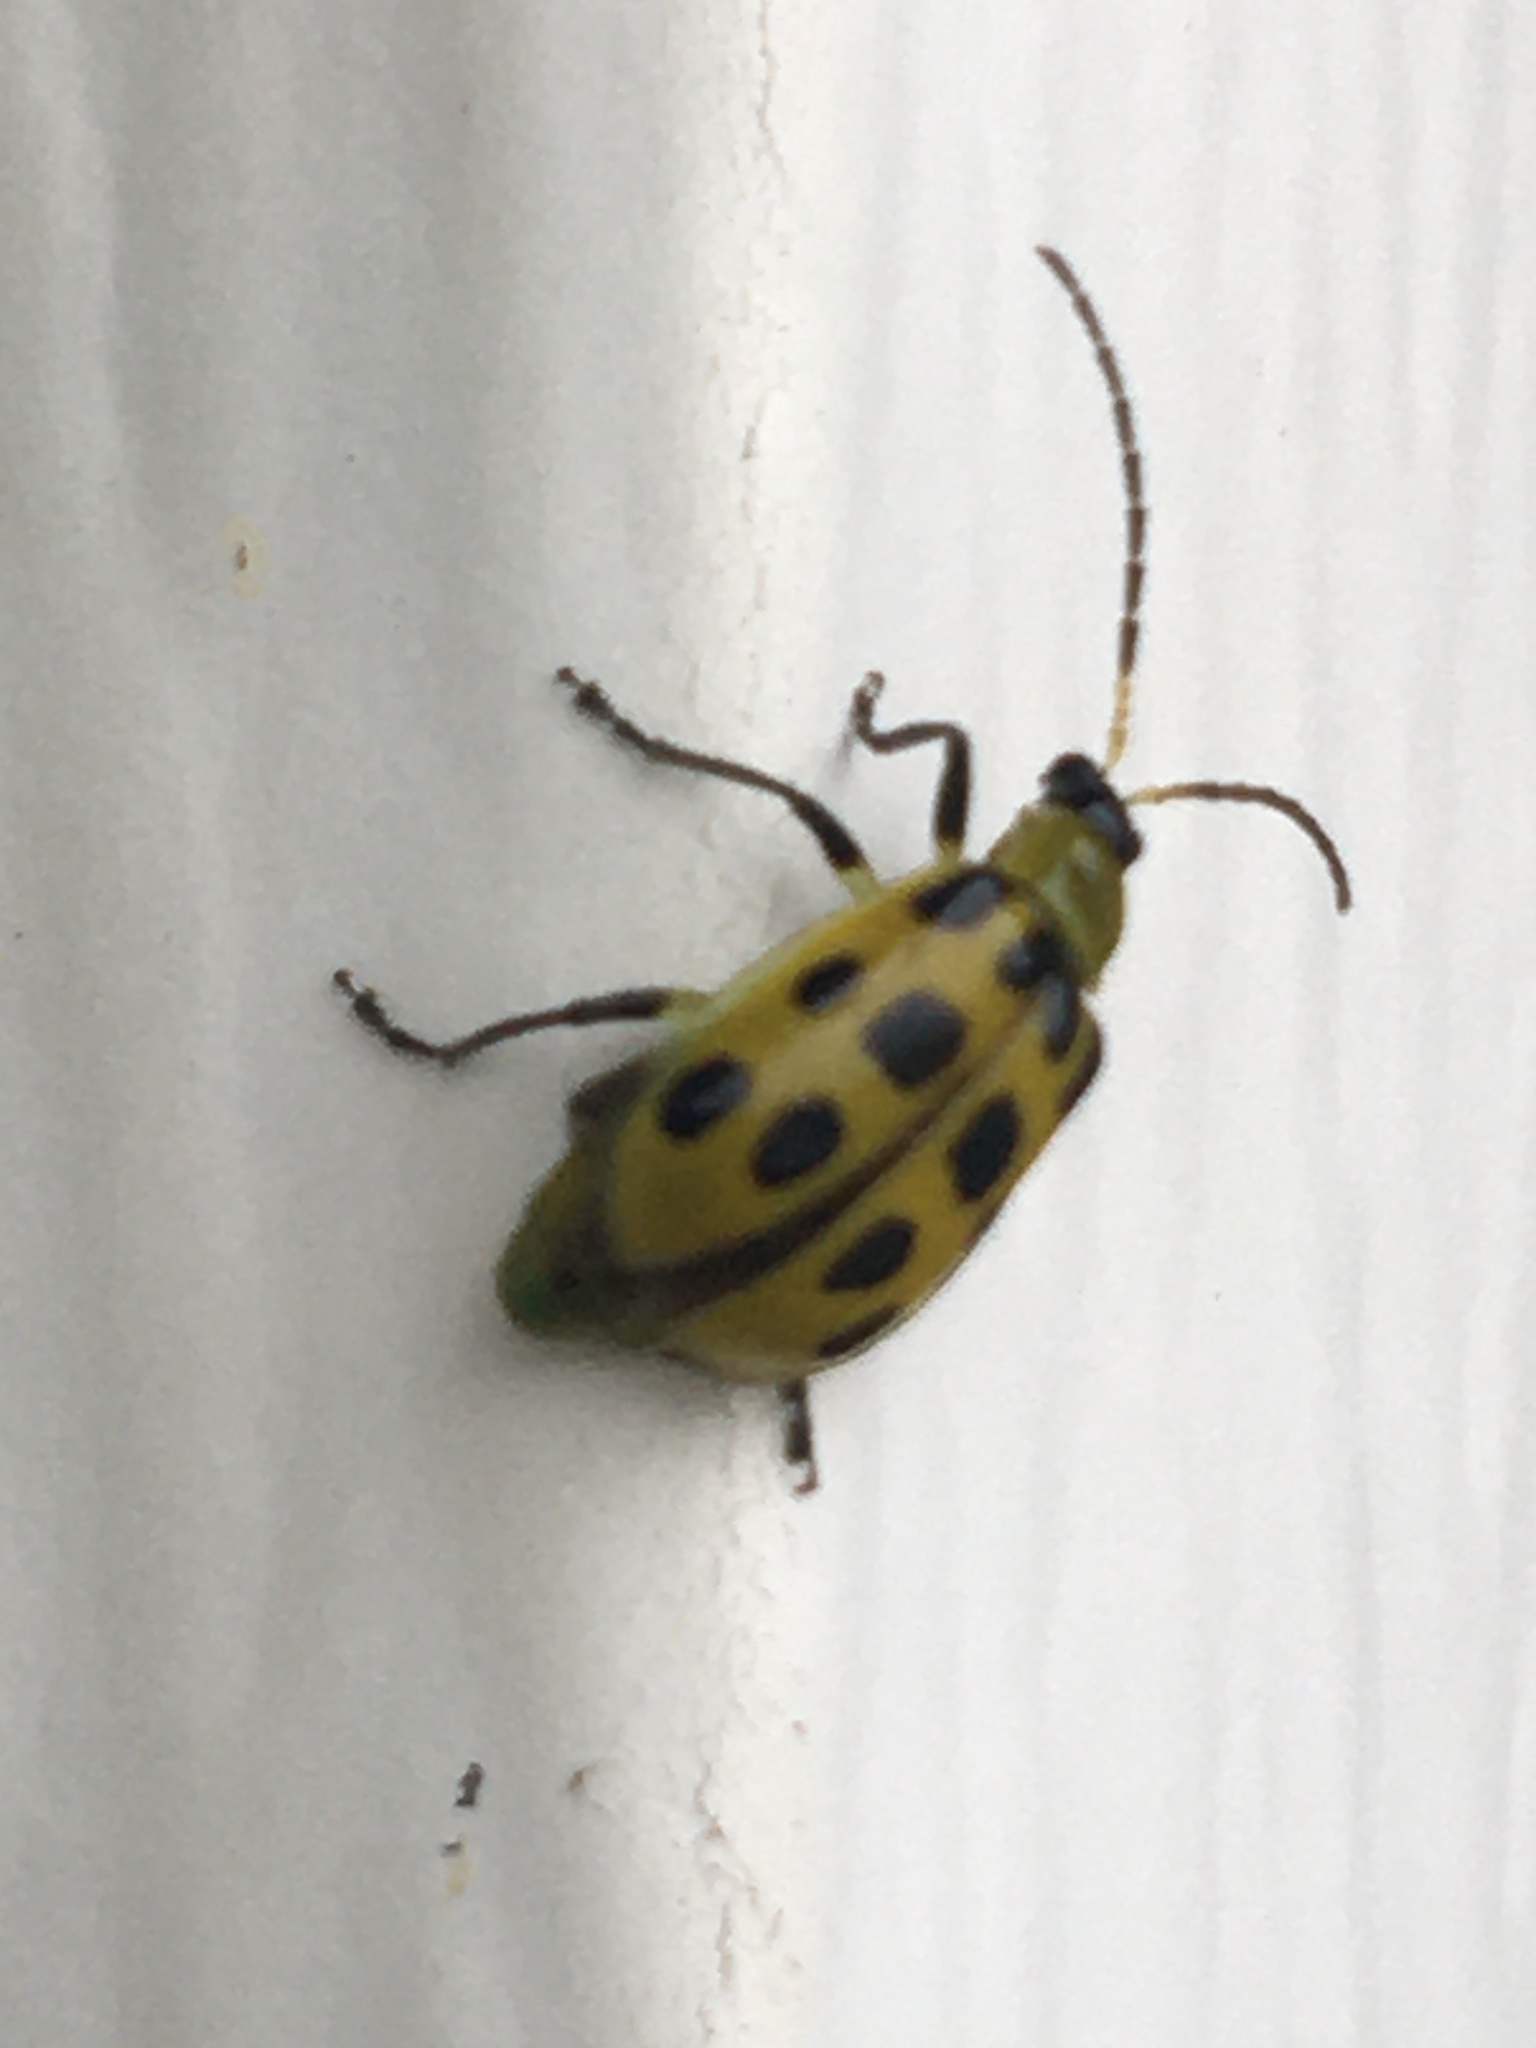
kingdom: Animalia
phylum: Arthropoda
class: Insecta
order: Coleoptera
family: Chrysomelidae
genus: Diabrotica
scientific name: Diabrotica undecimpunctata
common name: Spotted cucumber beetle
